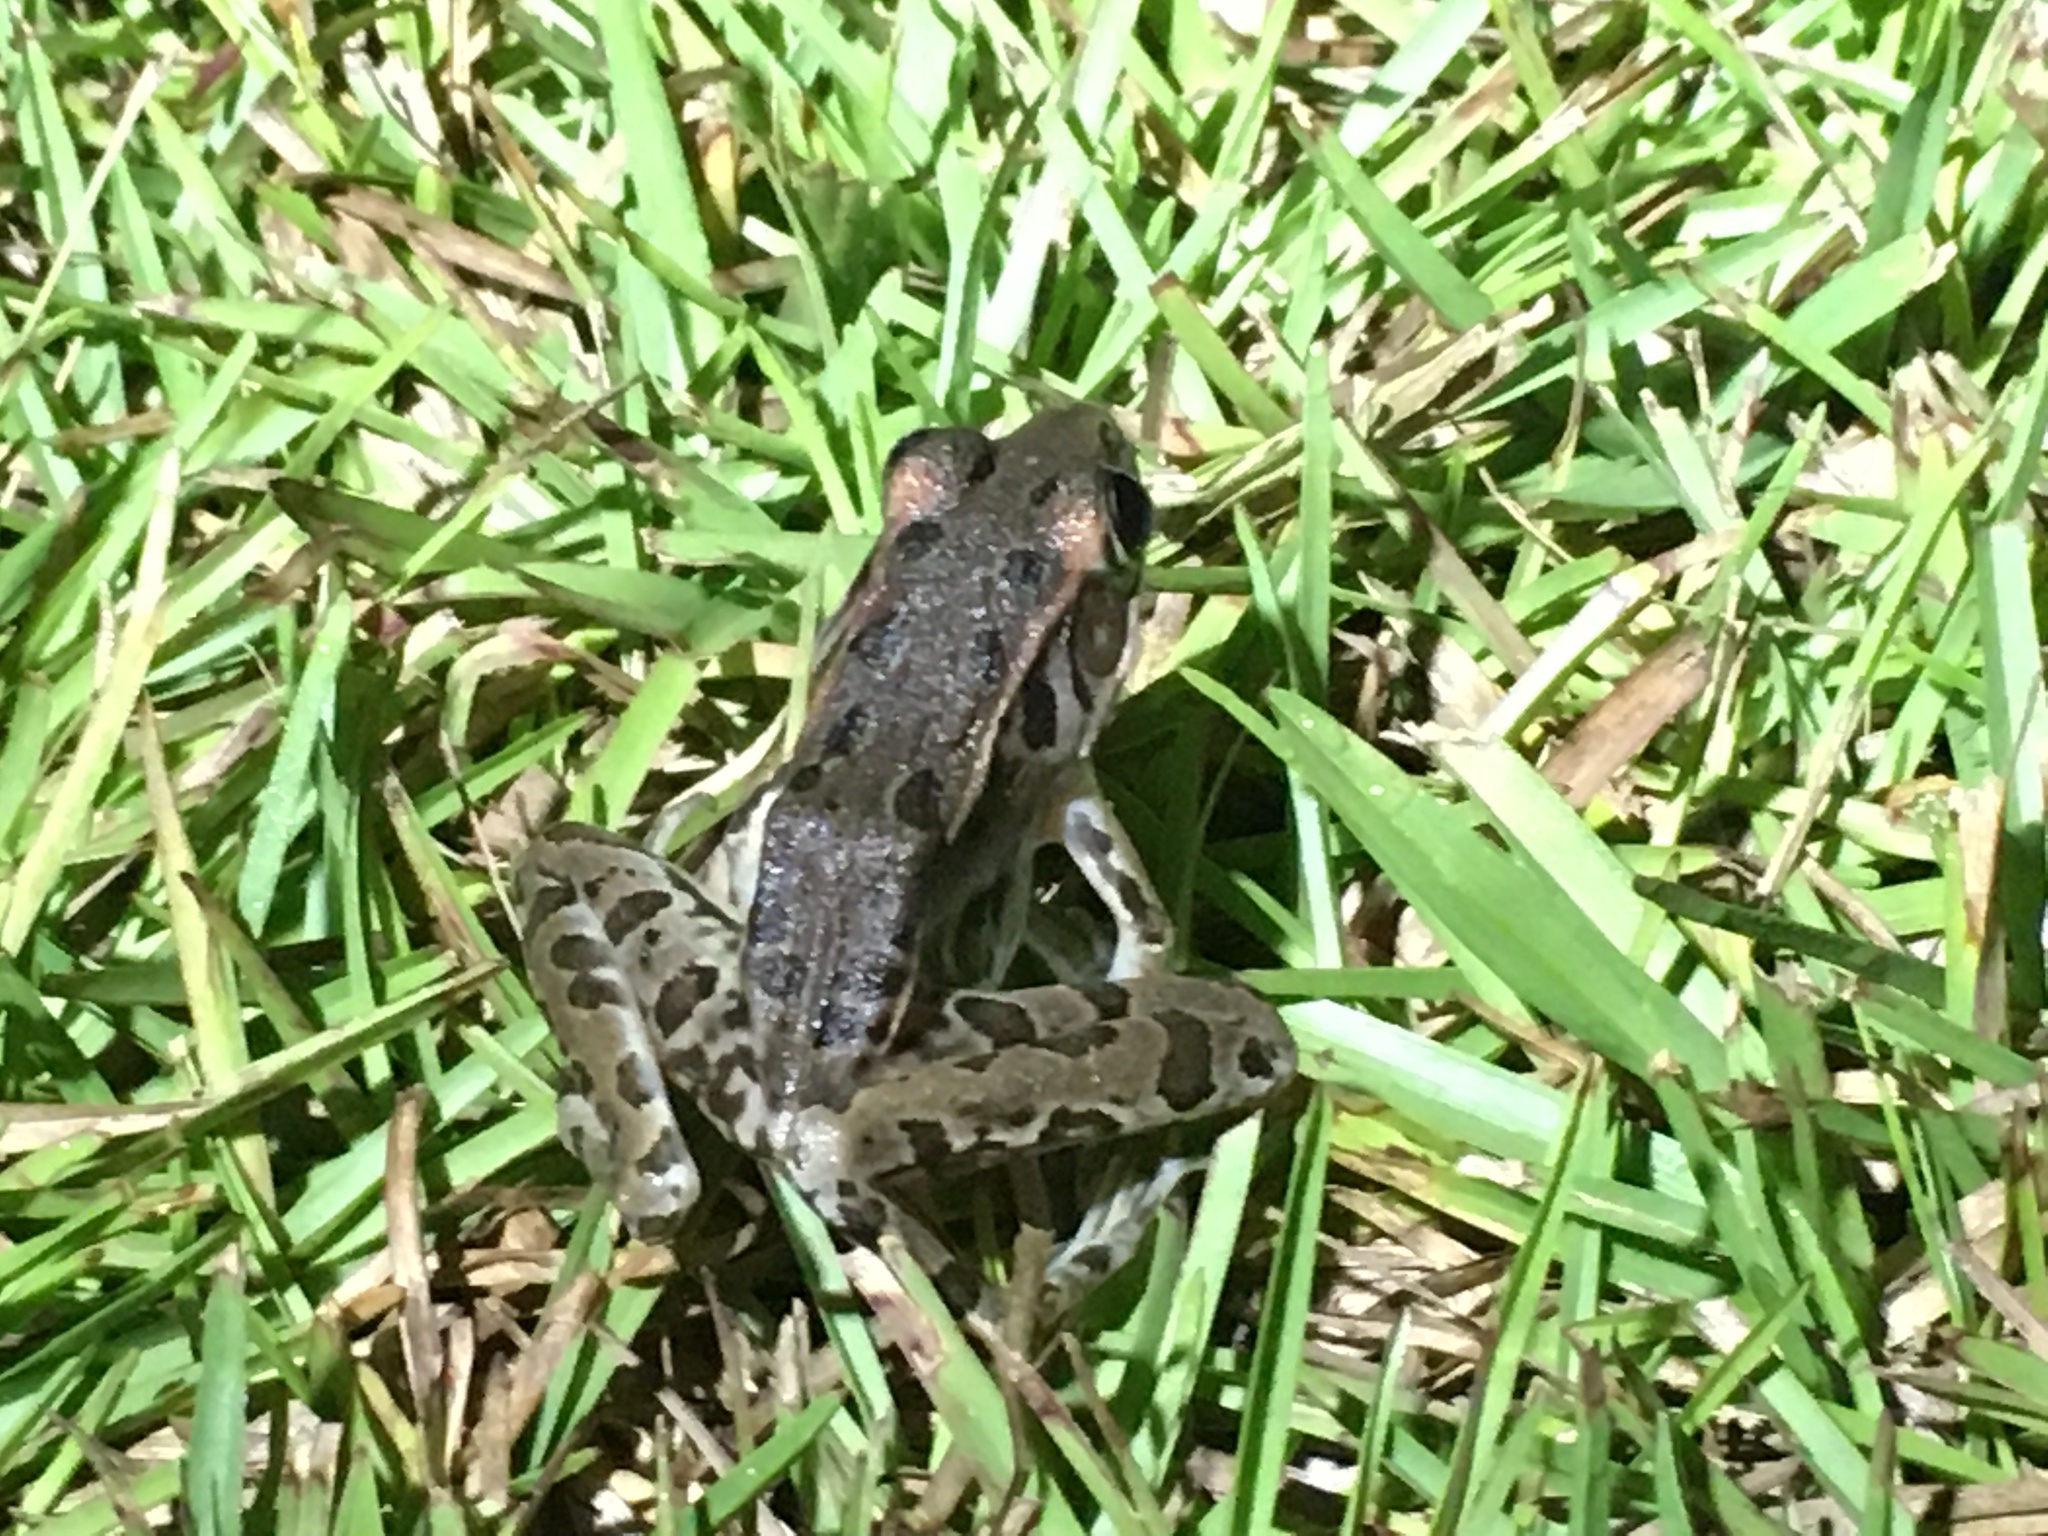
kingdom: Animalia
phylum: Chordata
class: Amphibia
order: Anura
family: Ranidae
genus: Lithobates
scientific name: Lithobates sphenocephalus
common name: Southern leopard frog
